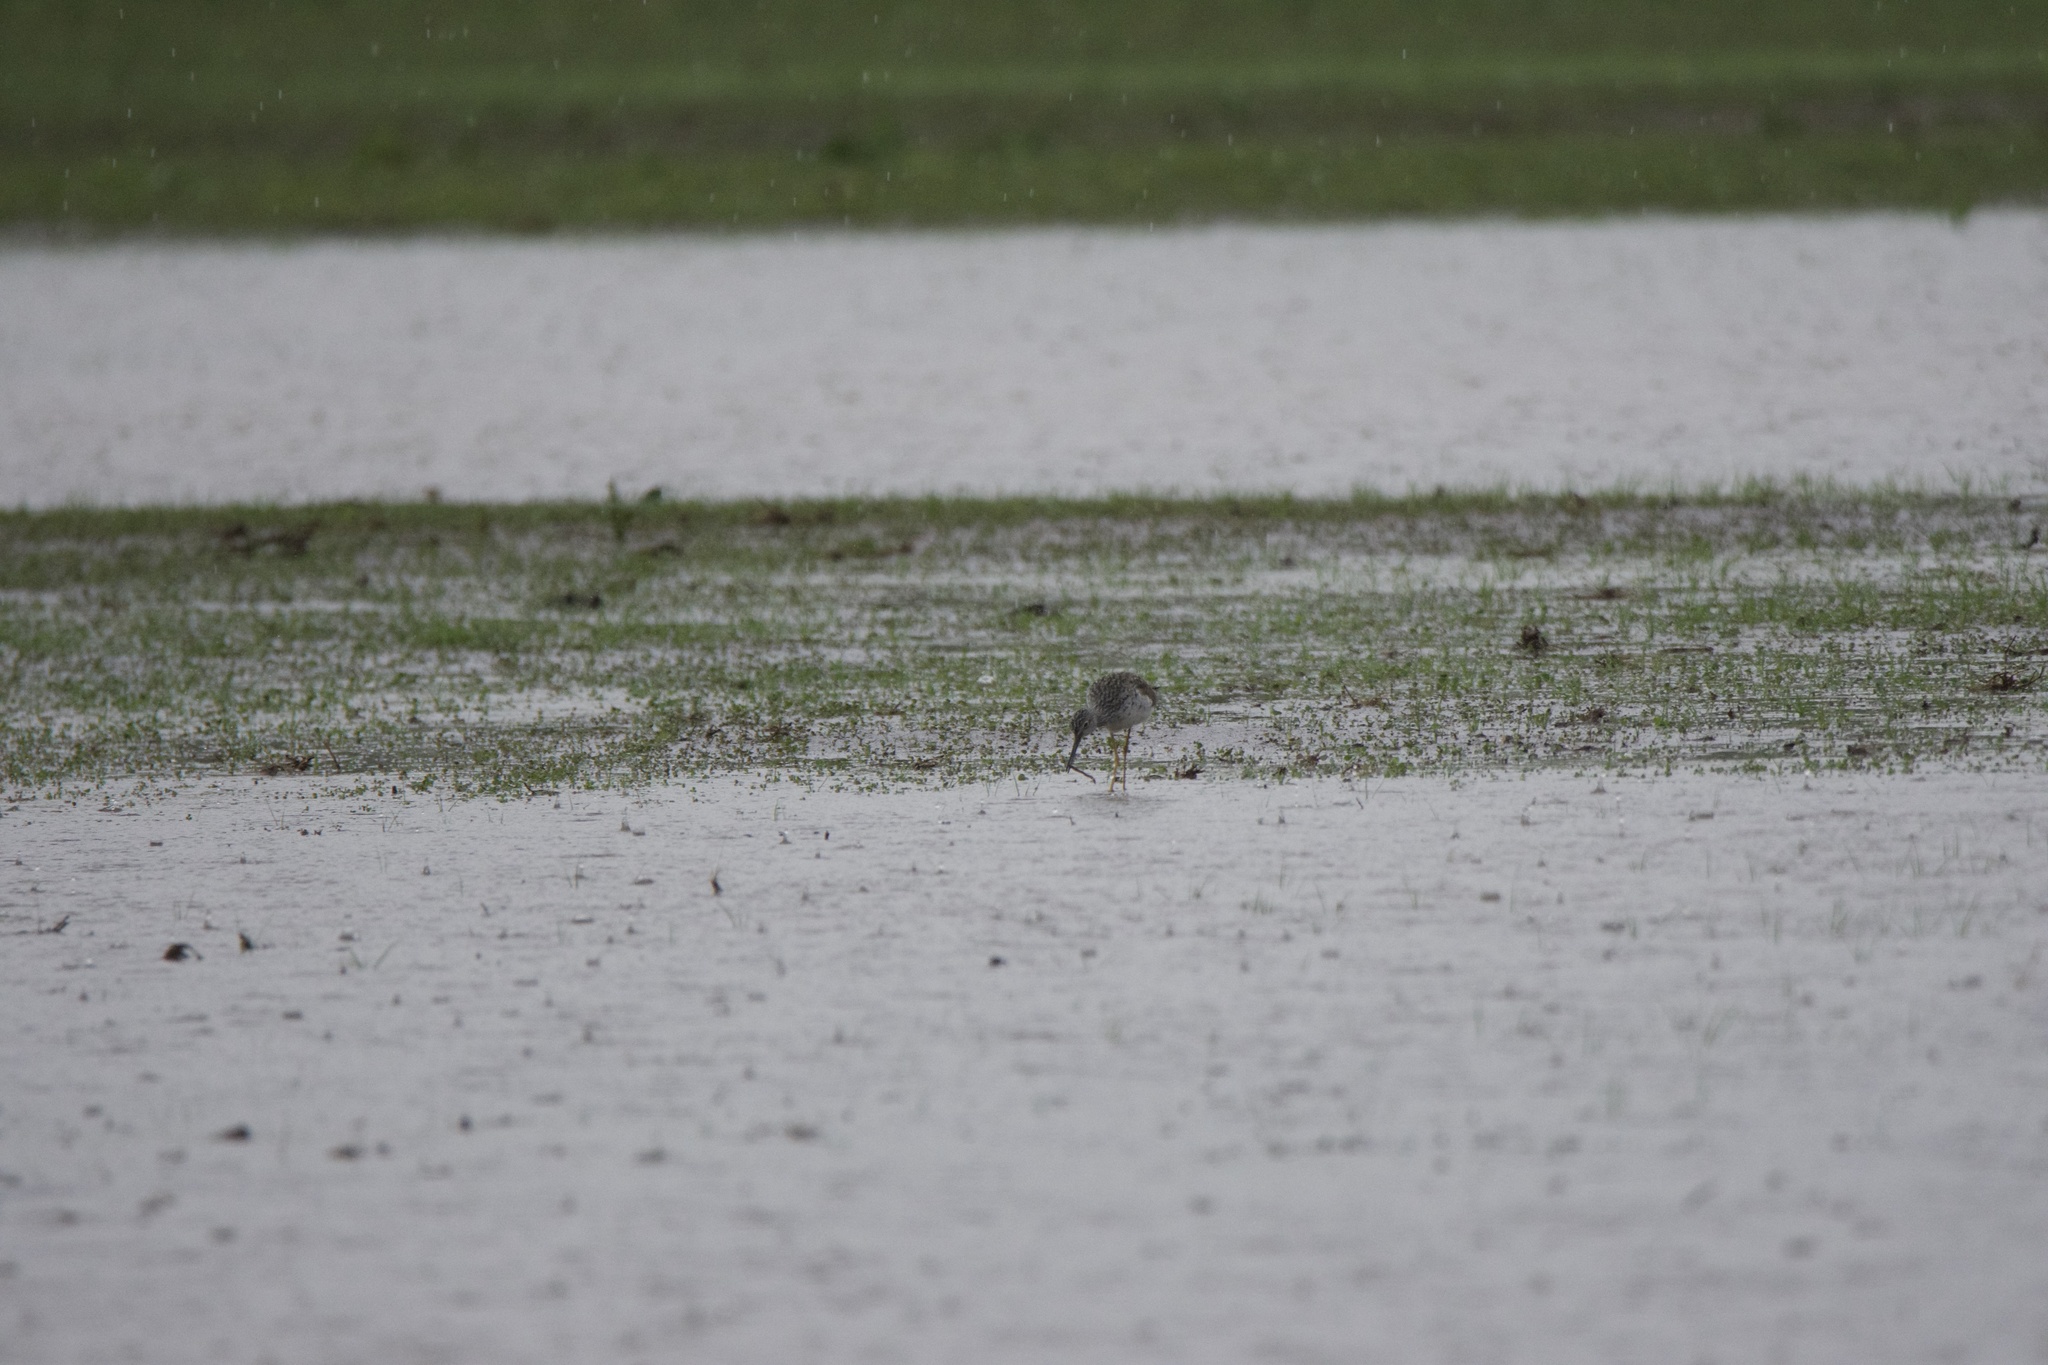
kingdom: Animalia
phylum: Chordata
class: Aves
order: Charadriiformes
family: Scolopacidae
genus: Tringa
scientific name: Tringa melanoleuca
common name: Greater yellowlegs
